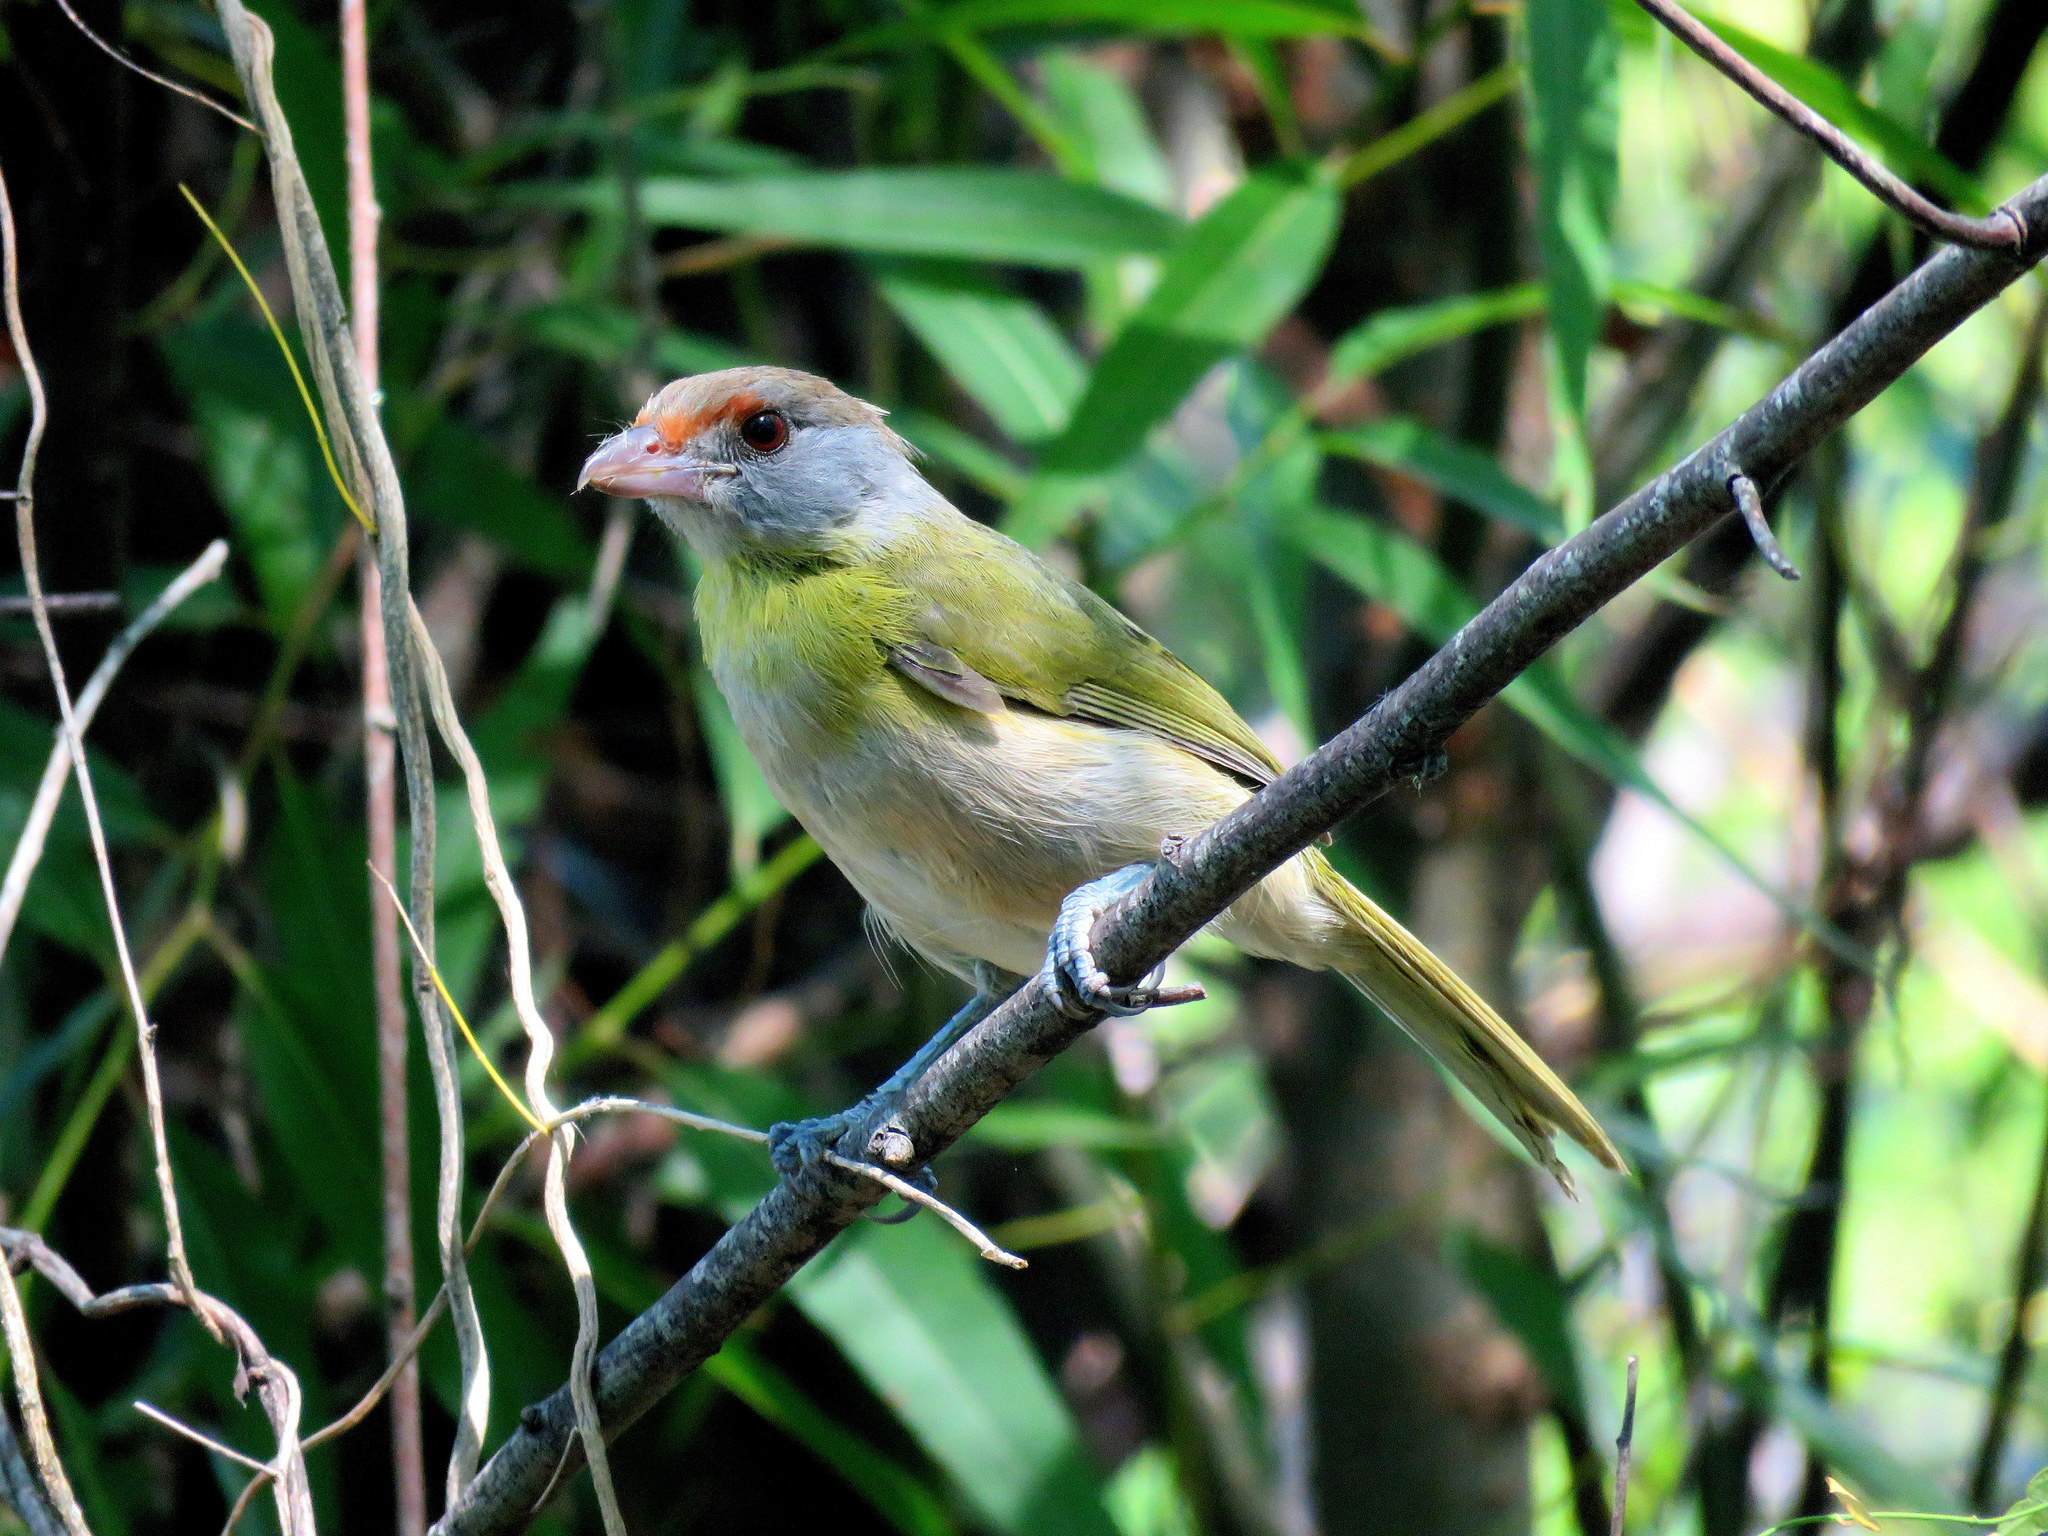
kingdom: Animalia
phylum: Chordata
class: Aves
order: Passeriformes
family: Vireonidae
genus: Cyclarhis
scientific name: Cyclarhis gujanensis
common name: Rufous-browed peppershrike
